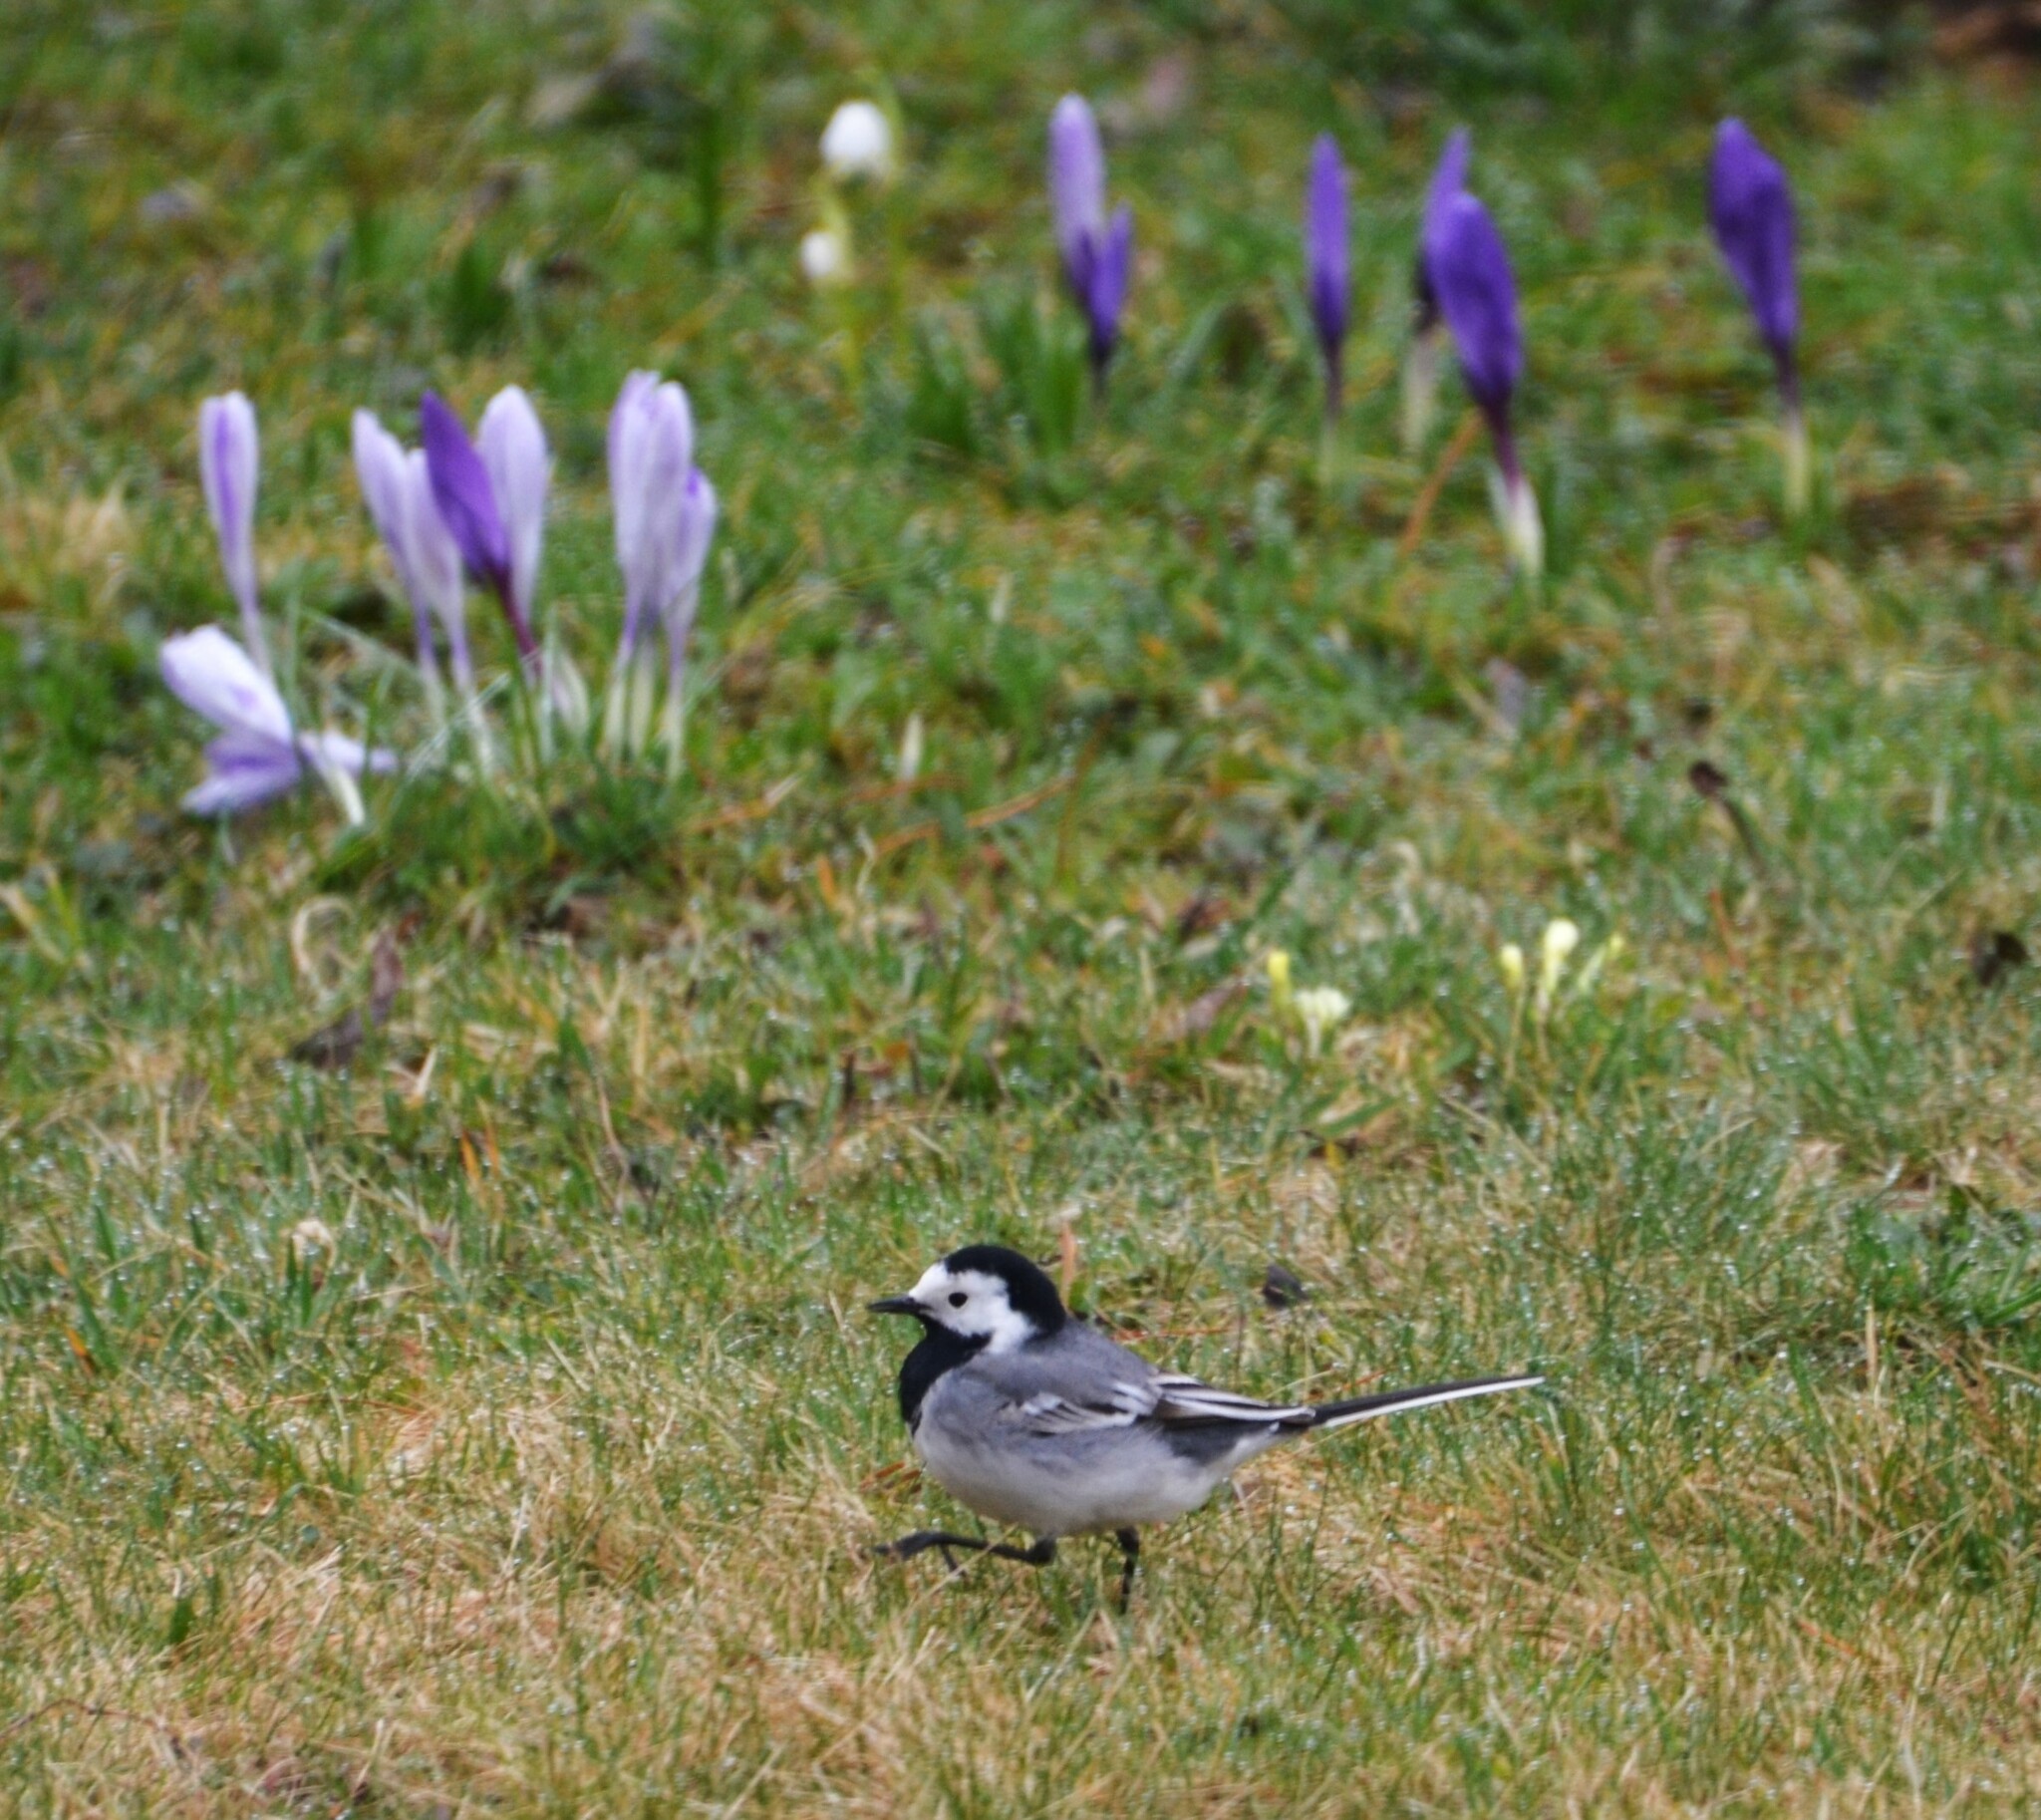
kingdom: Animalia
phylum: Chordata
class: Aves
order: Passeriformes
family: Motacillidae
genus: Motacilla
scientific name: Motacilla alba
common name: White wagtail
